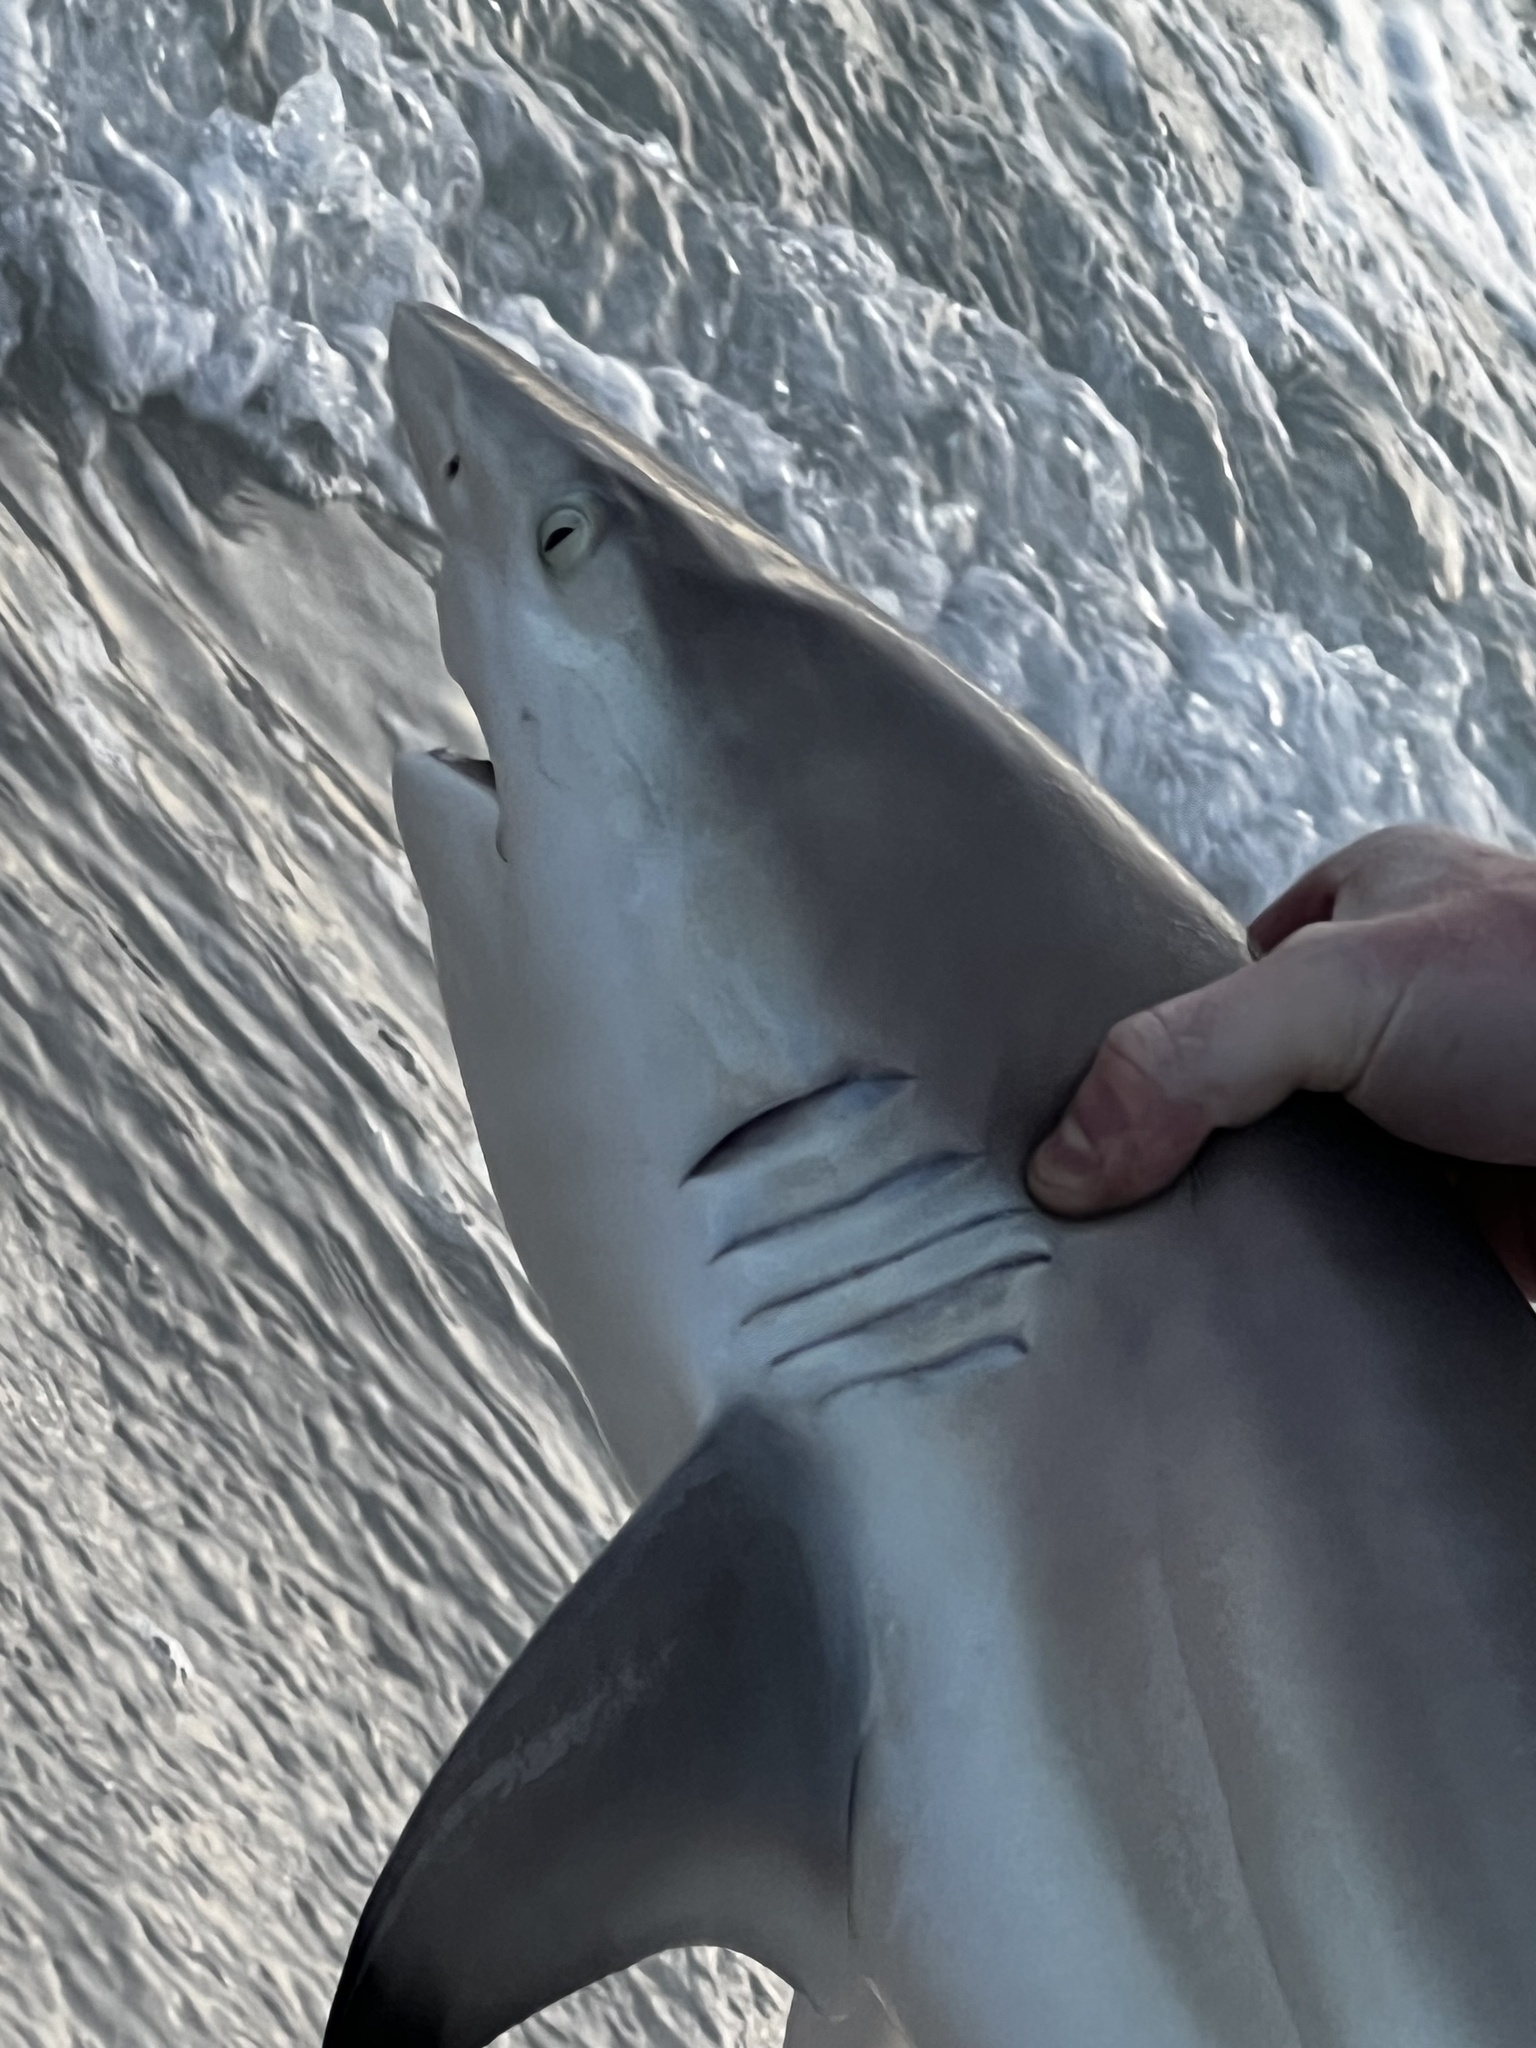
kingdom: Animalia
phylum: Chordata
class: Elasmobranchii
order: Carcharhiniformes
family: Carcharhinidae
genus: Carcharhinus
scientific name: Carcharhinus limbatus
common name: Blacktip shark
